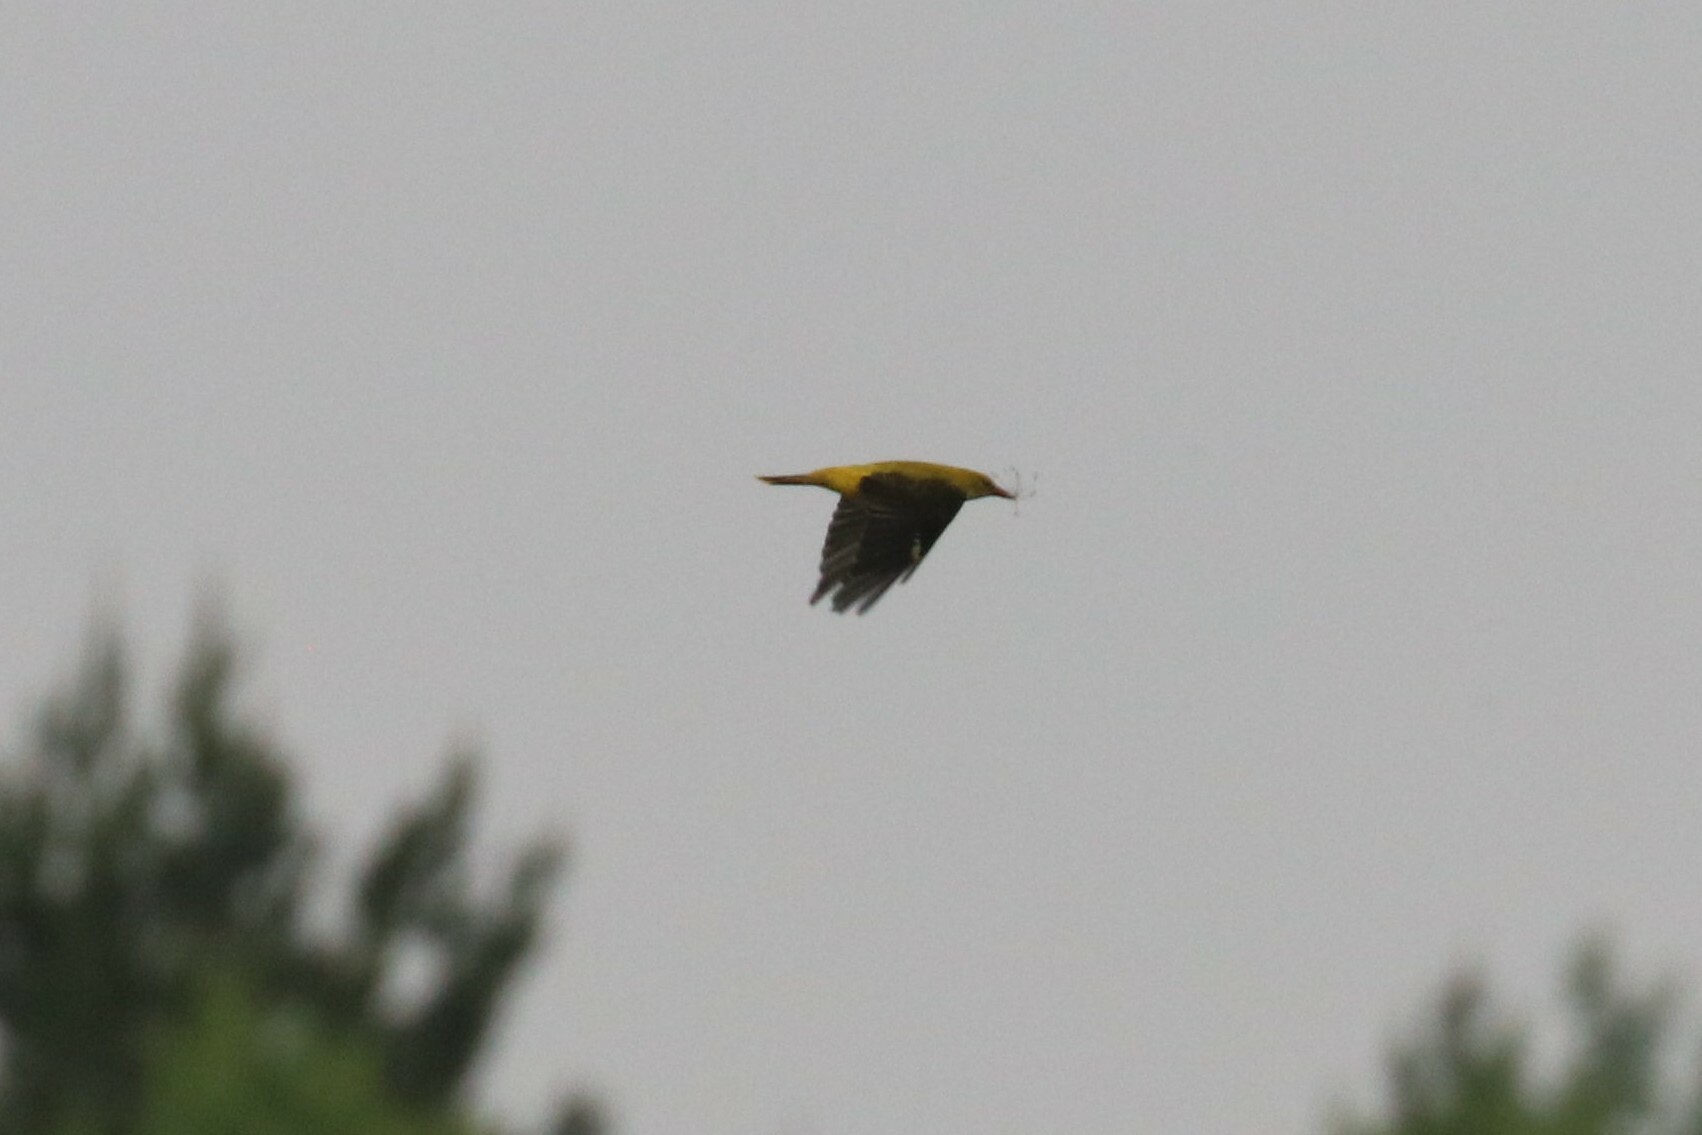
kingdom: Animalia
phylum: Chordata
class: Aves
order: Passeriformes
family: Oriolidae
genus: Oriolus
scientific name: Oriolus oriolus
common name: Eurasian golden oriole
